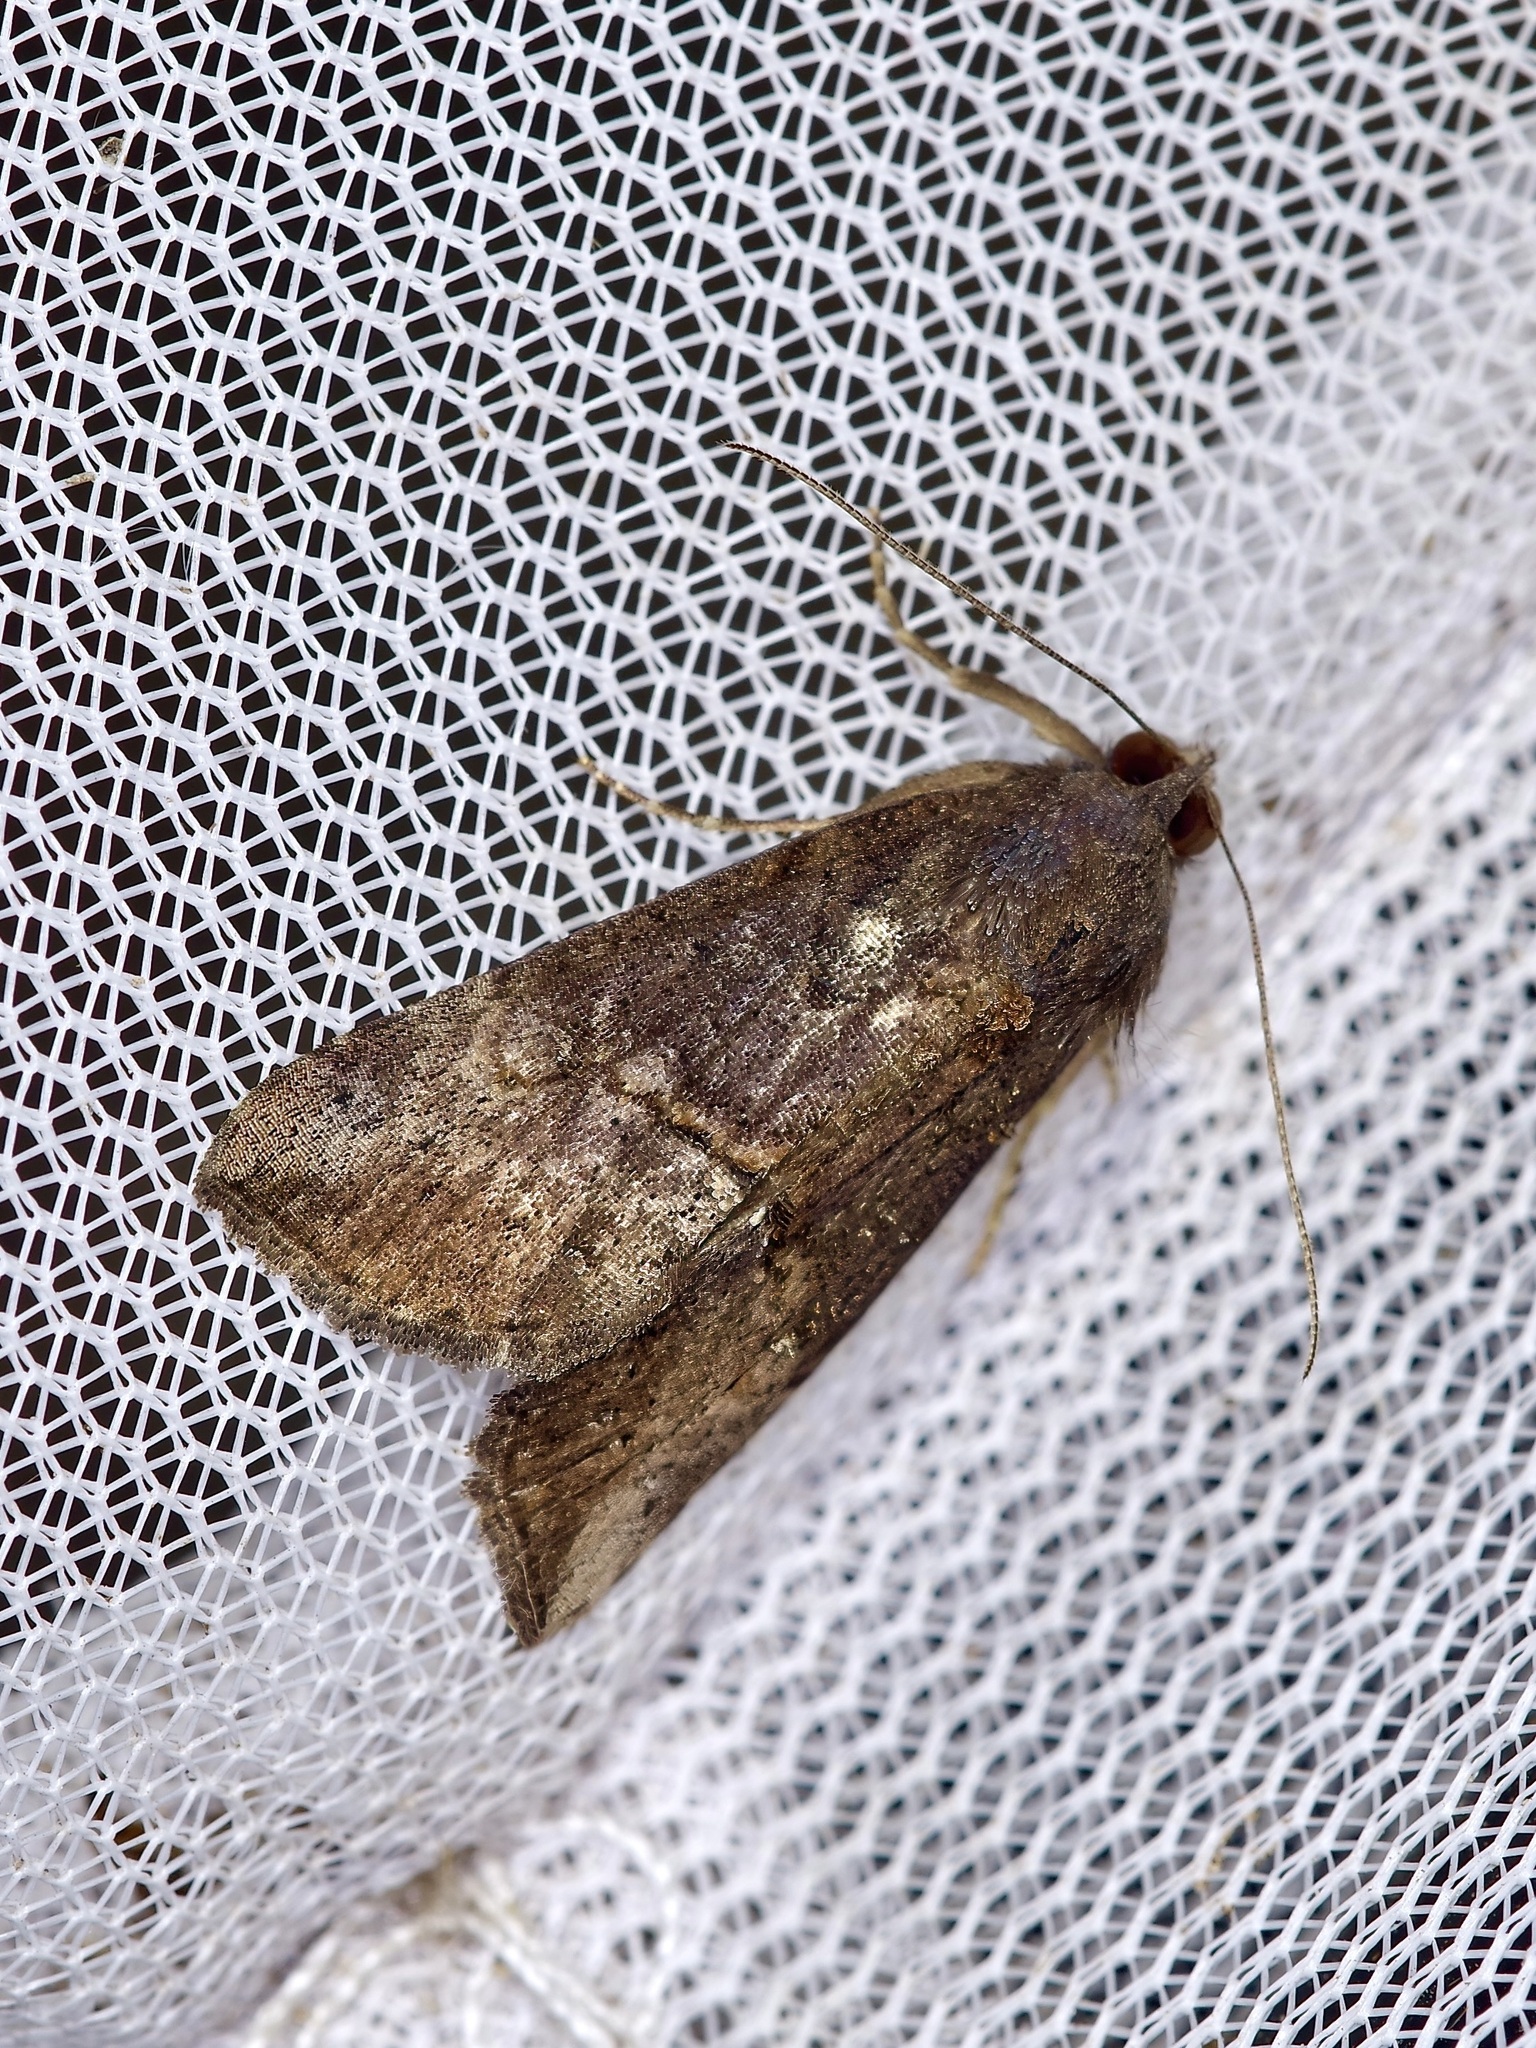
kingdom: Animalia
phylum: Arthropoda
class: Insecta
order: Lepidoptera
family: Erebidae
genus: Hypena
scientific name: Hypena scabra
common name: Green cloverworm
